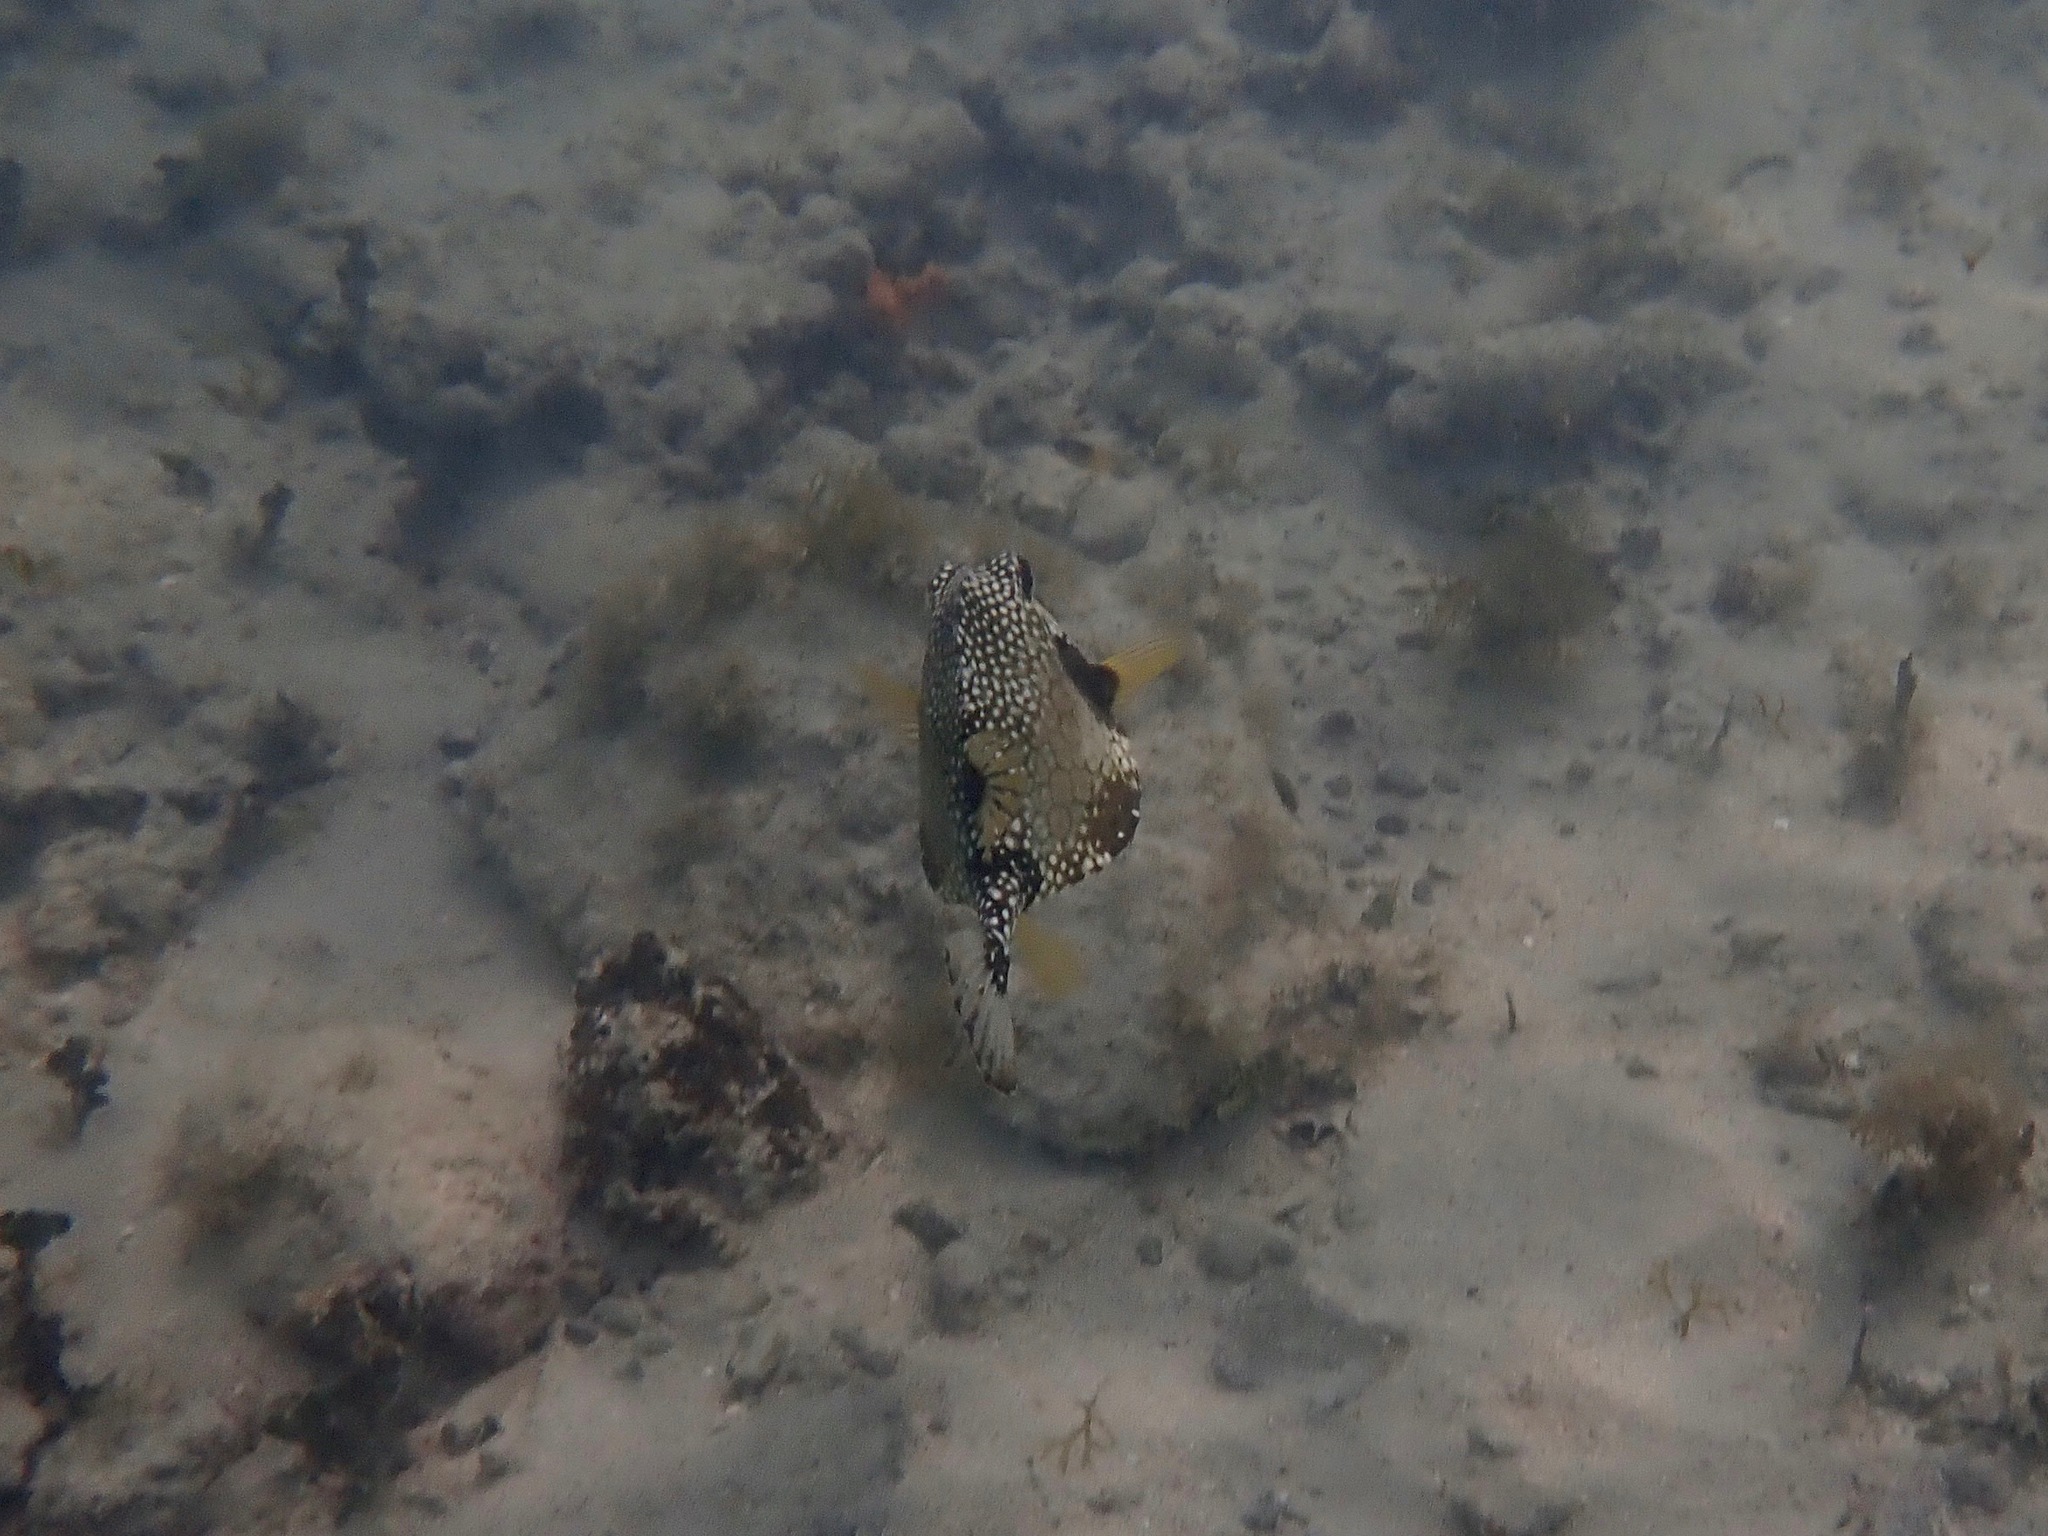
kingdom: Animalia
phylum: Chordata
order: Tetraodontiformes
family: Ostraciidae
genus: Lactophrys
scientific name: Lactophrys triqueter
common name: Smooth trunkfish
